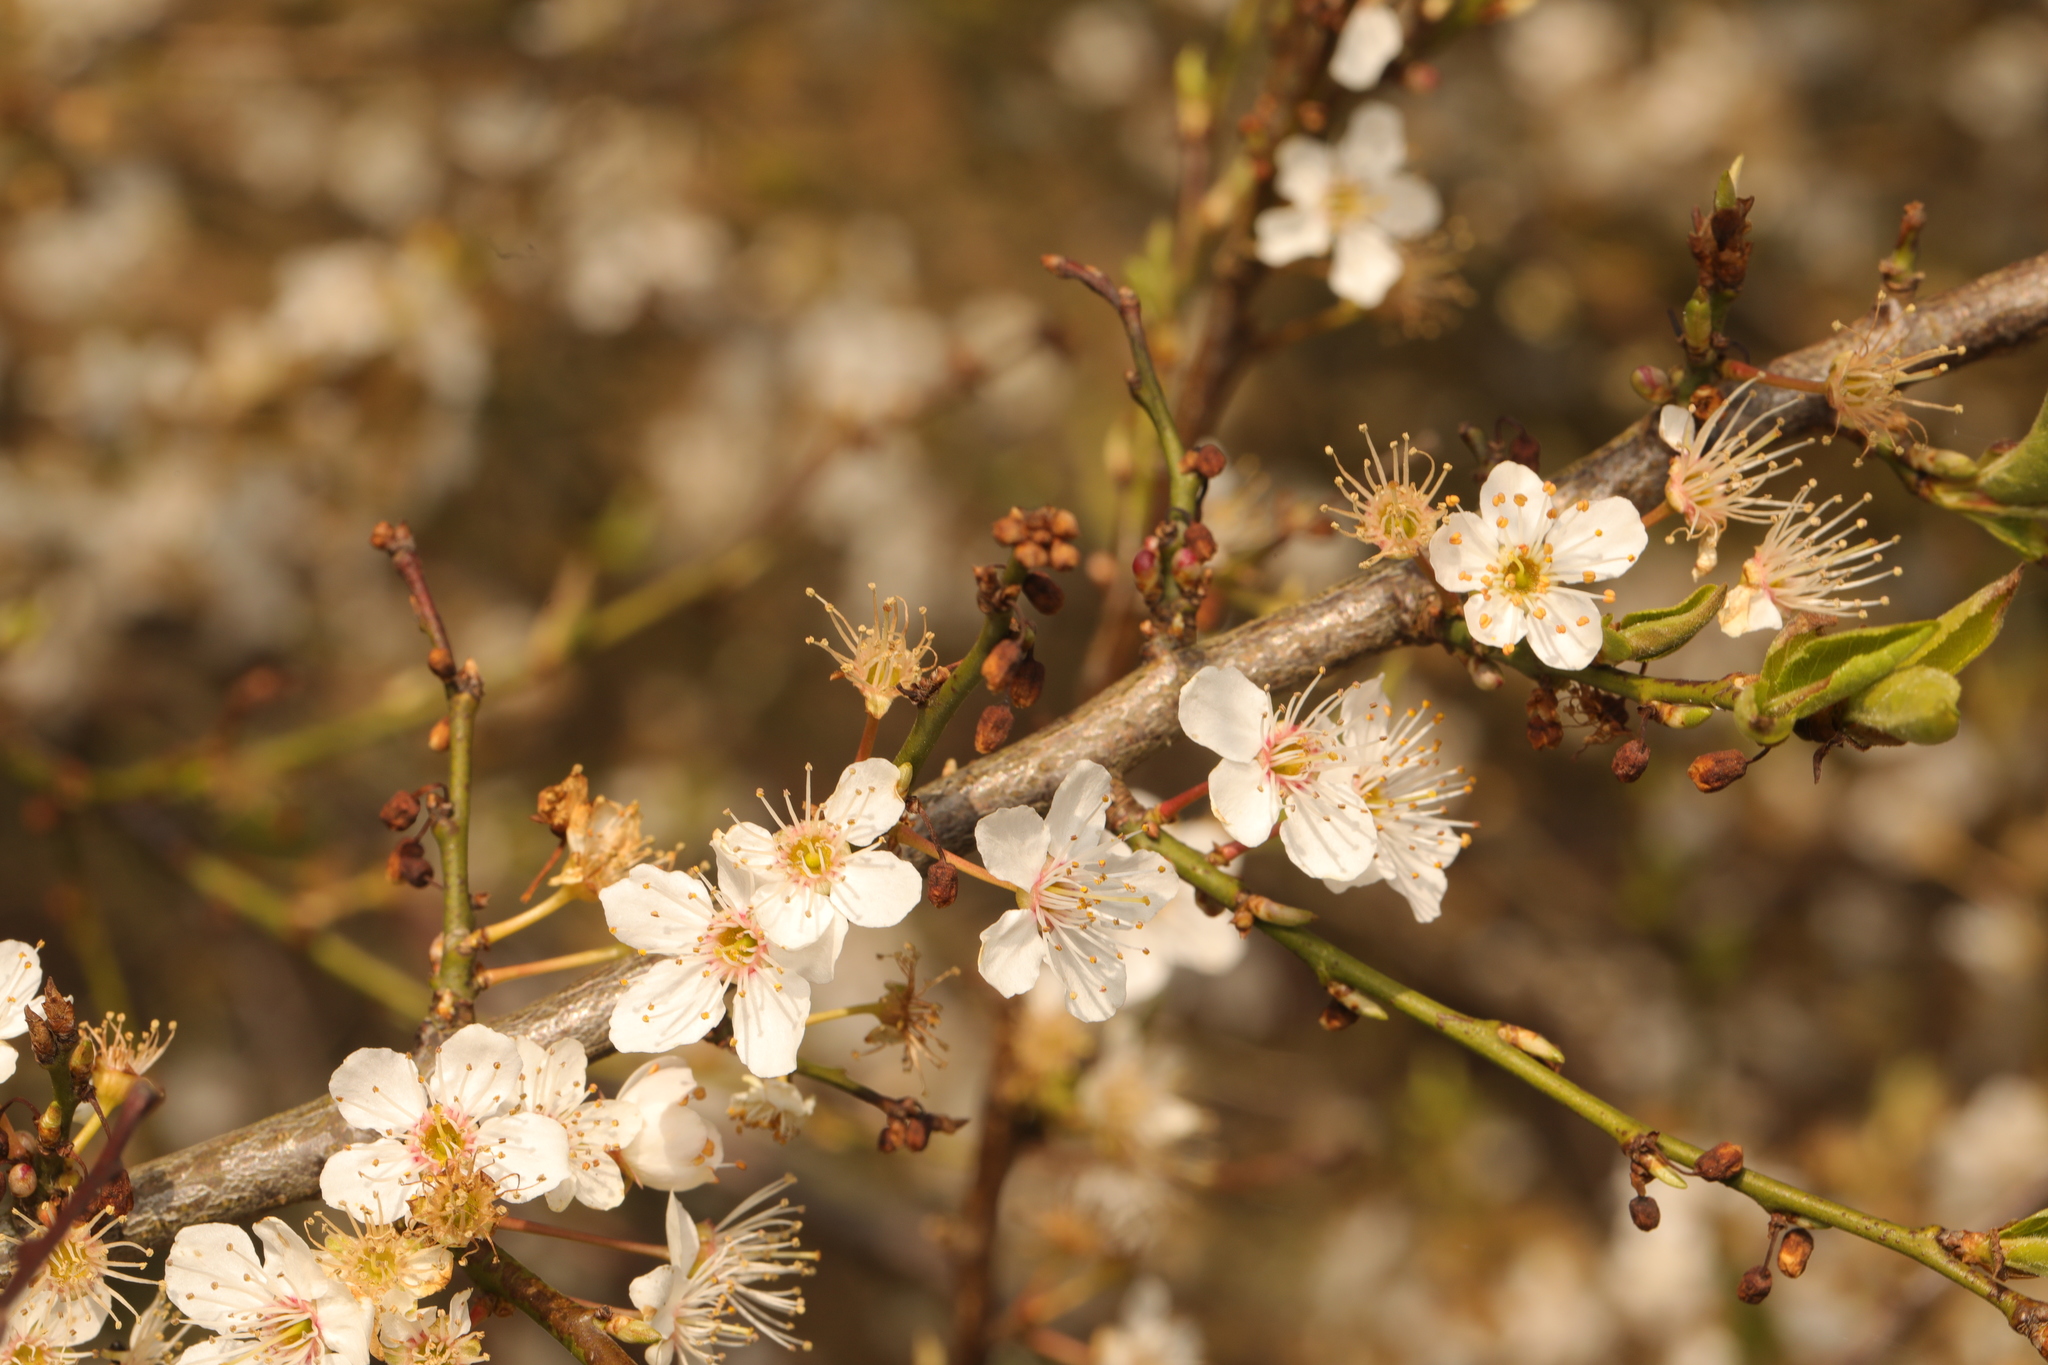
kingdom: Plantae
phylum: Tracheophyta
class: Magnoliopsida
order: Rosales
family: Rosaceae
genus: Prunus
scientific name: Prunus cerasifera
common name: Cherry plum
